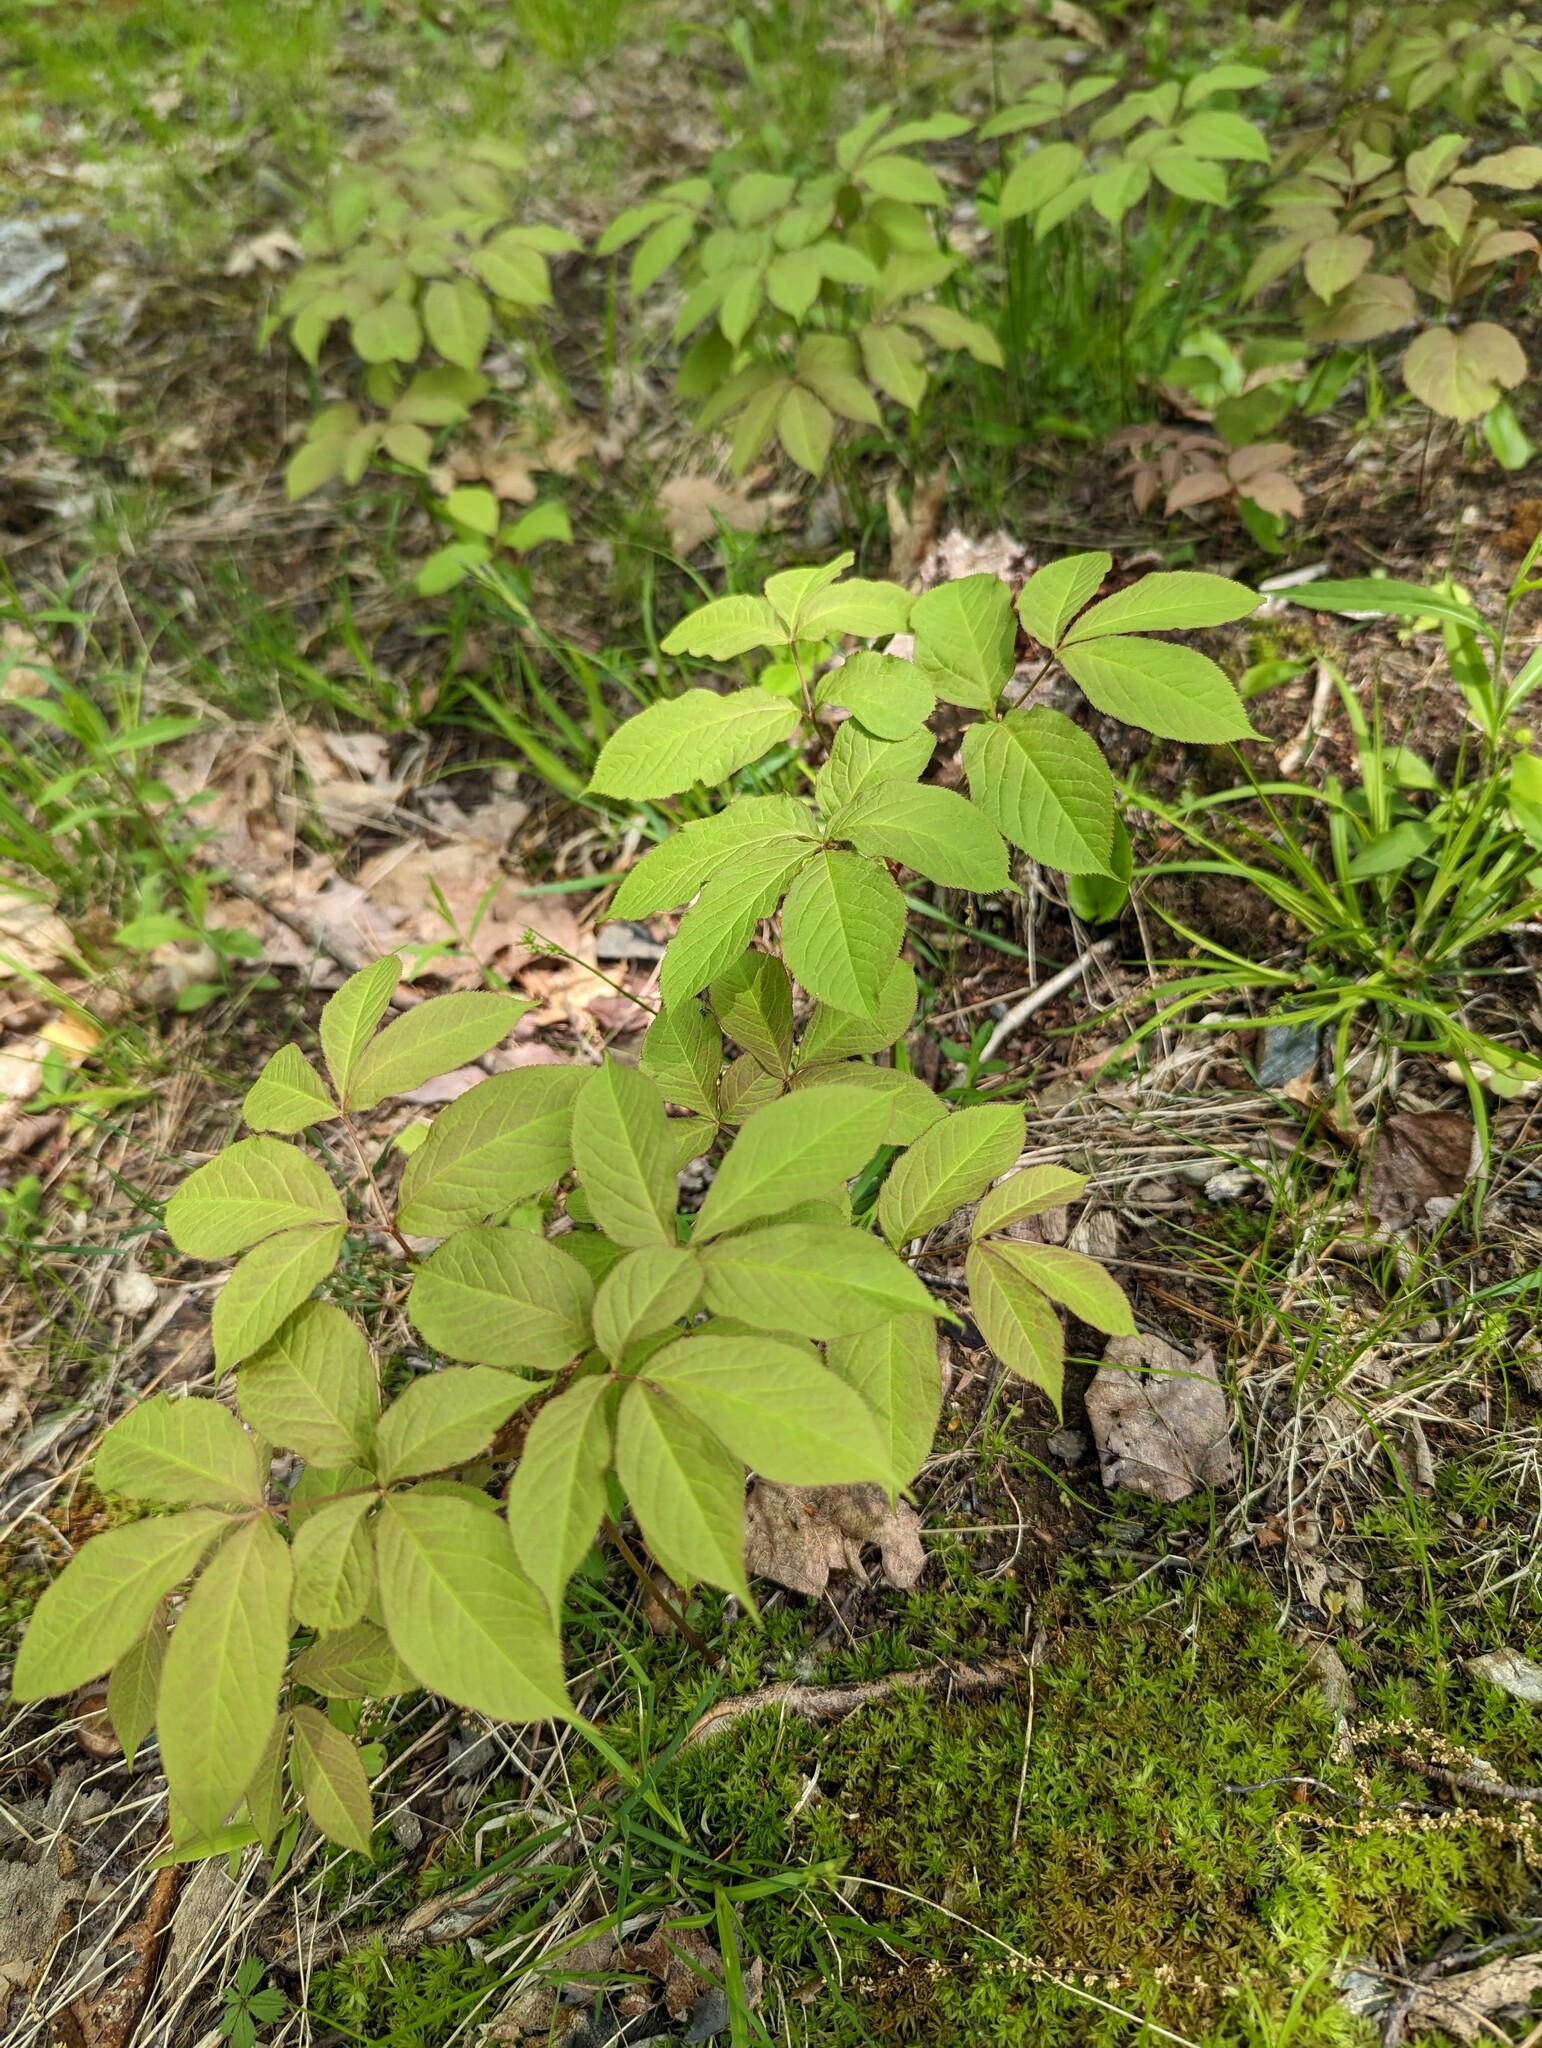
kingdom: Plantae
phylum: Tracheophyta
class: Magnoliopsida
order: Apiales
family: Araliaceae
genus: Aralia
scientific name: Aralia nudicaulis
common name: Wild sarsaparilla
